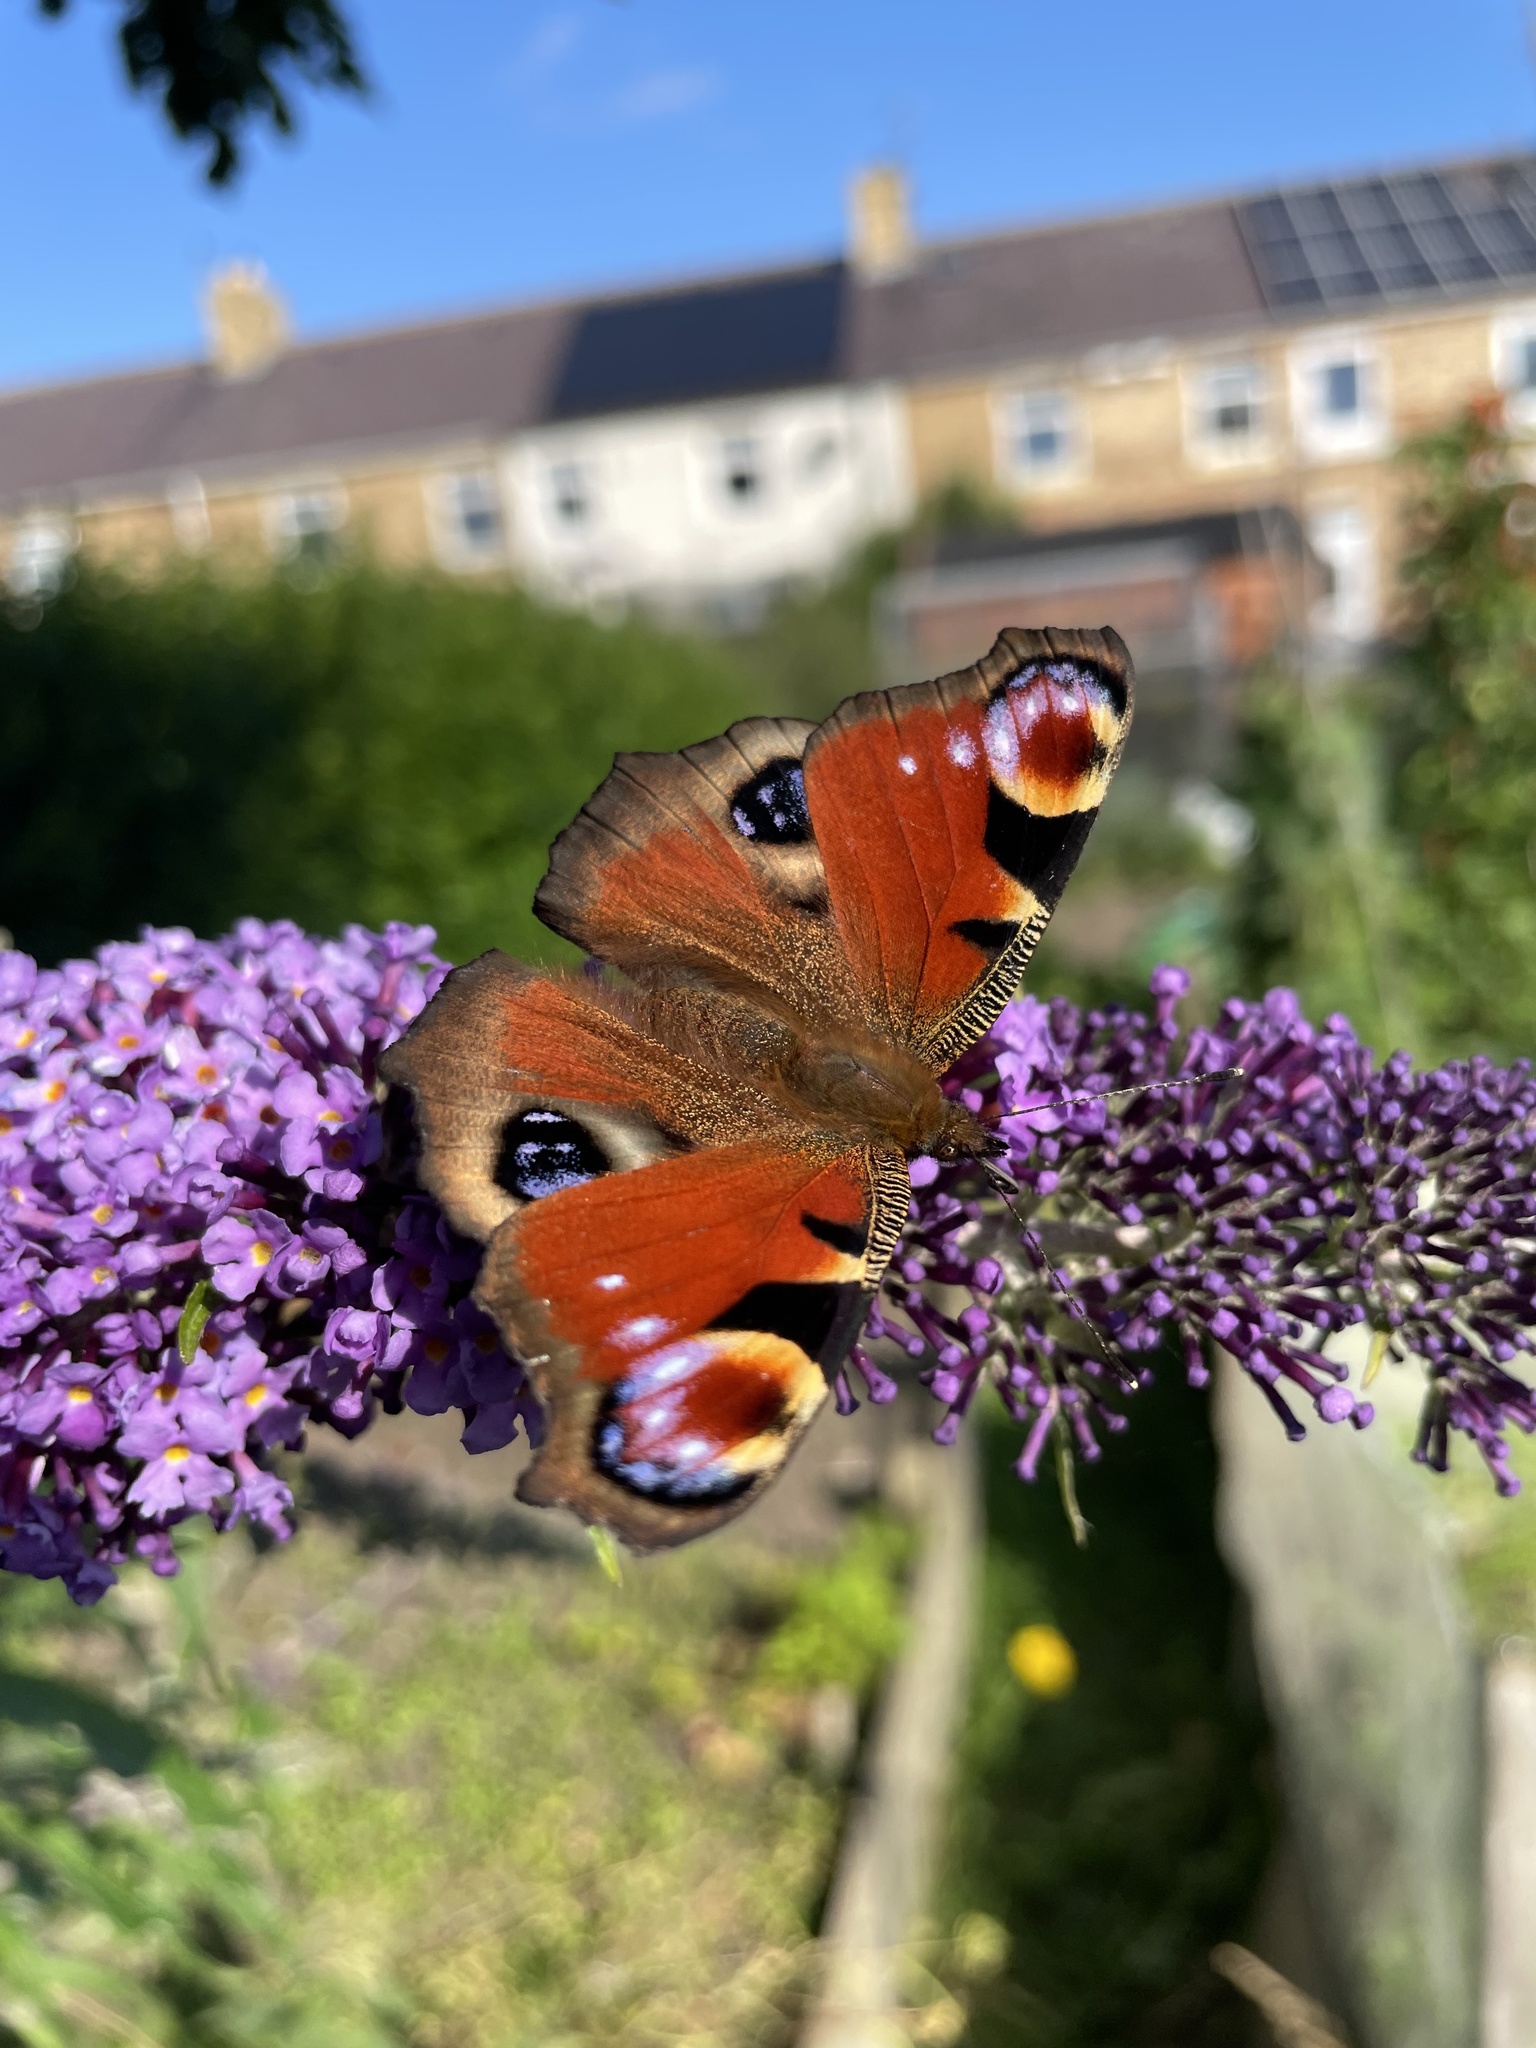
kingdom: Animalia
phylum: Arthropoda
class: Insecta
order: Lepidoptera
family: Nymphalidae
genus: Aglais
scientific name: Aglais io
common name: Peacock
